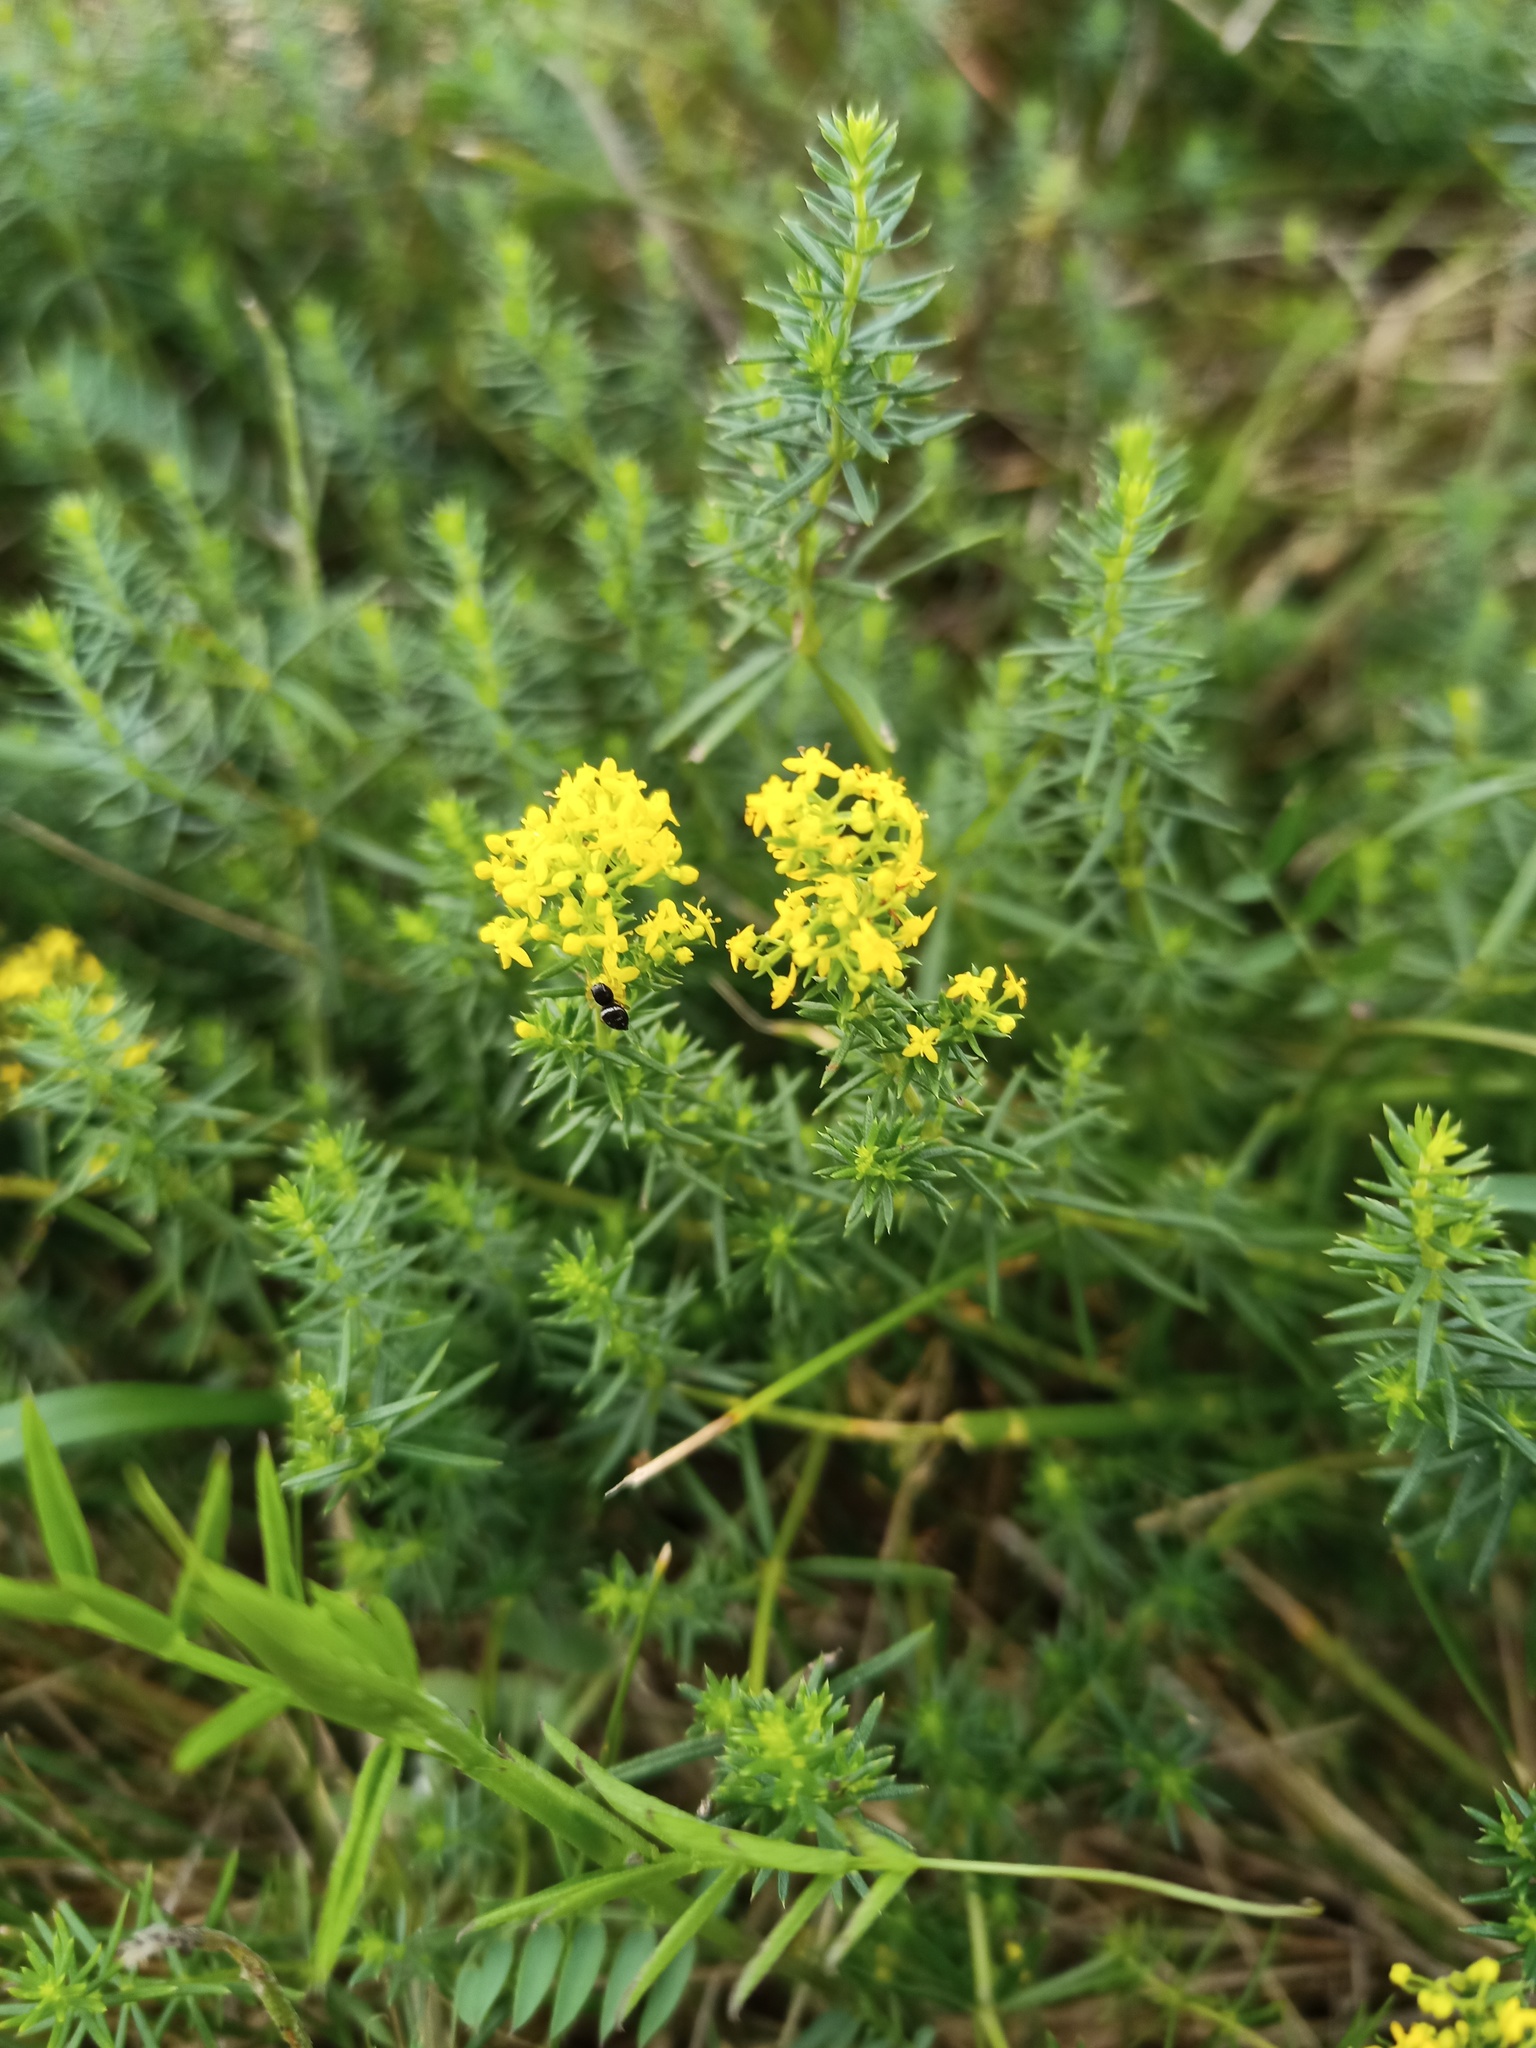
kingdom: Plantae
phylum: Tracheophyta
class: Magnoliopsida
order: Gentianales
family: Rubiaceae
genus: Galium
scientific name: Galium verum
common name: Lady's bedstraw
